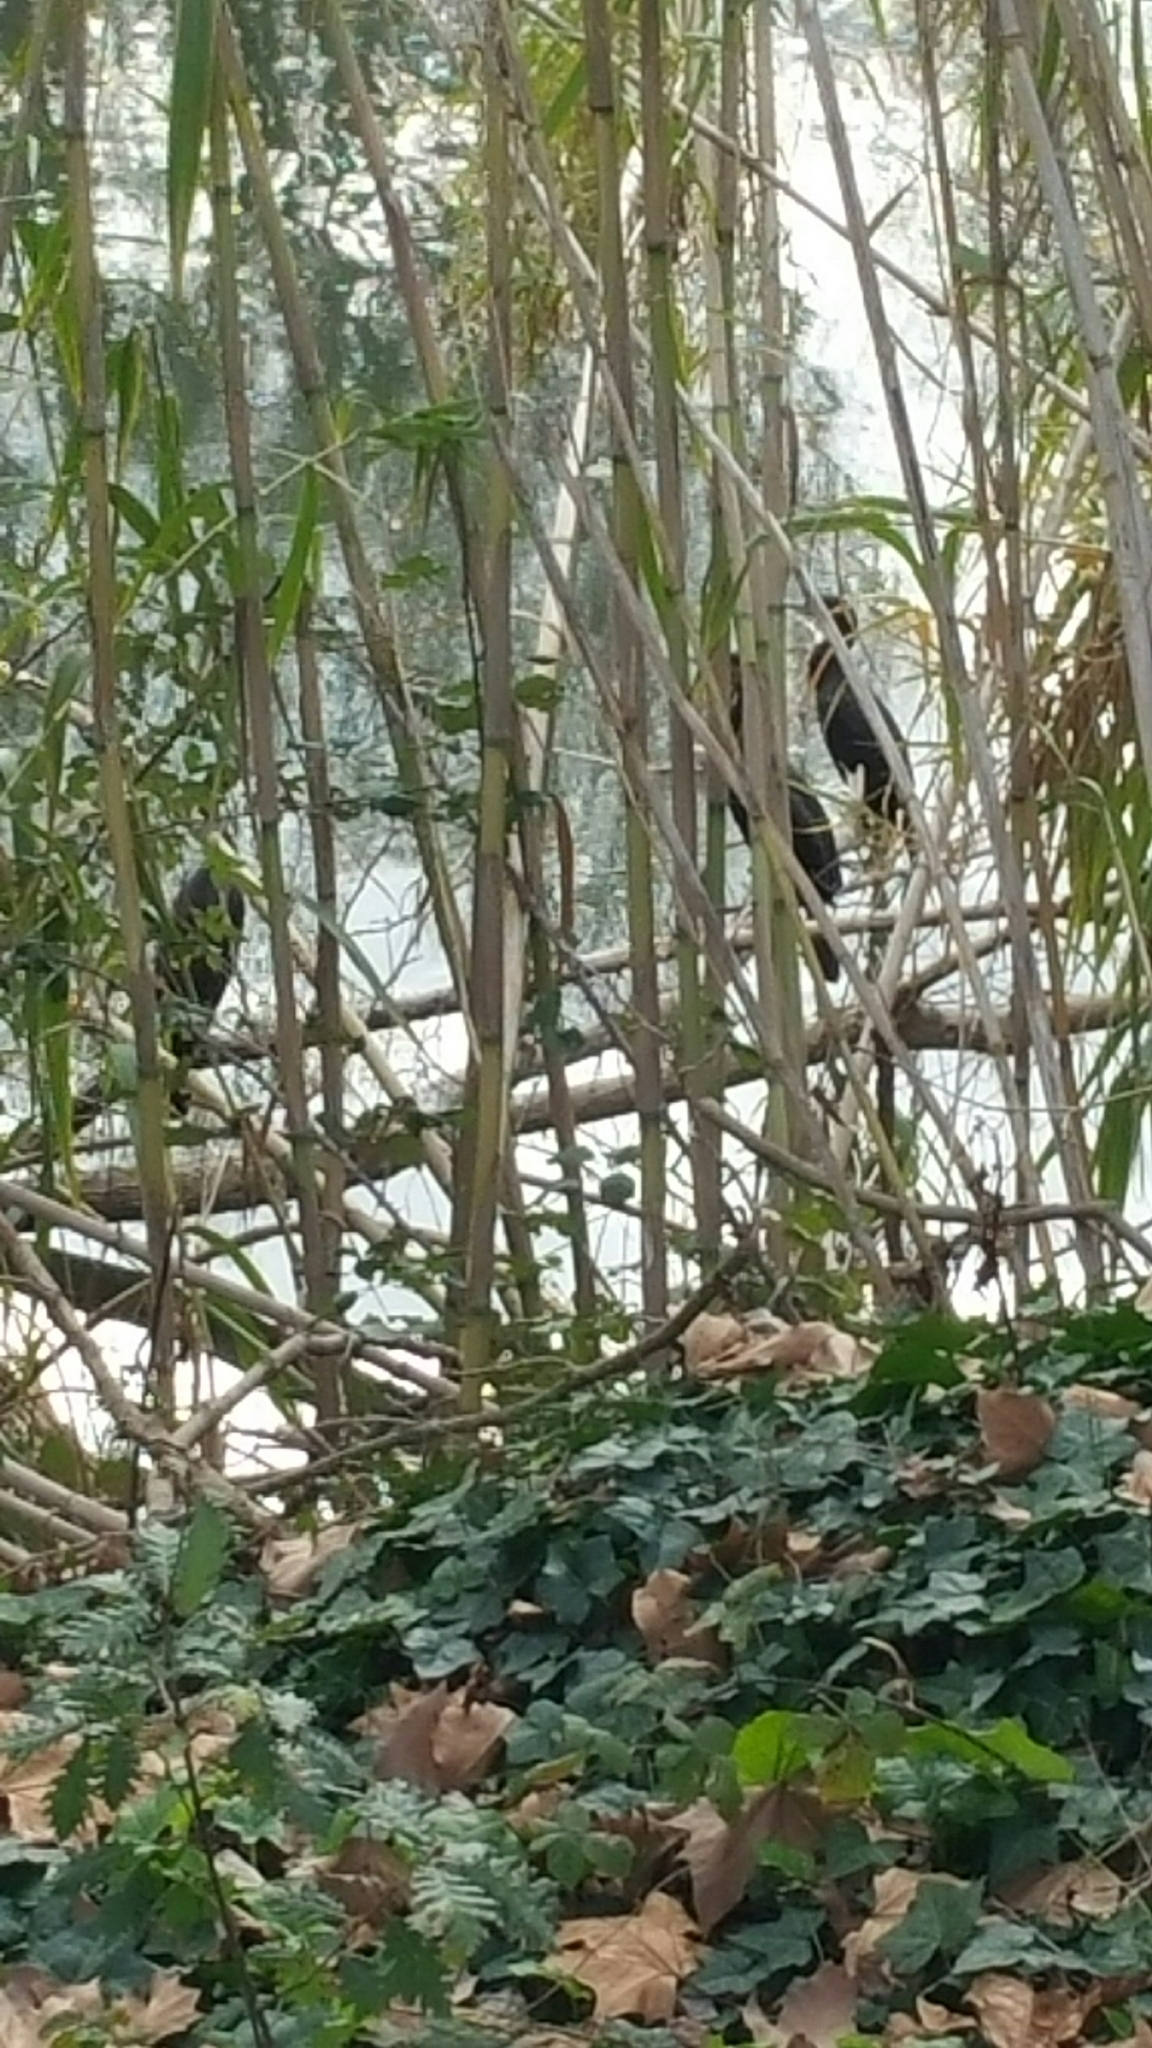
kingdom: Animalia
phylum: Chordata
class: Aves
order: Suliformes
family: Phalacrocoracidae
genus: Phalacrocorax
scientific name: Phalacrocorax carbo
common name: Great cormorant
